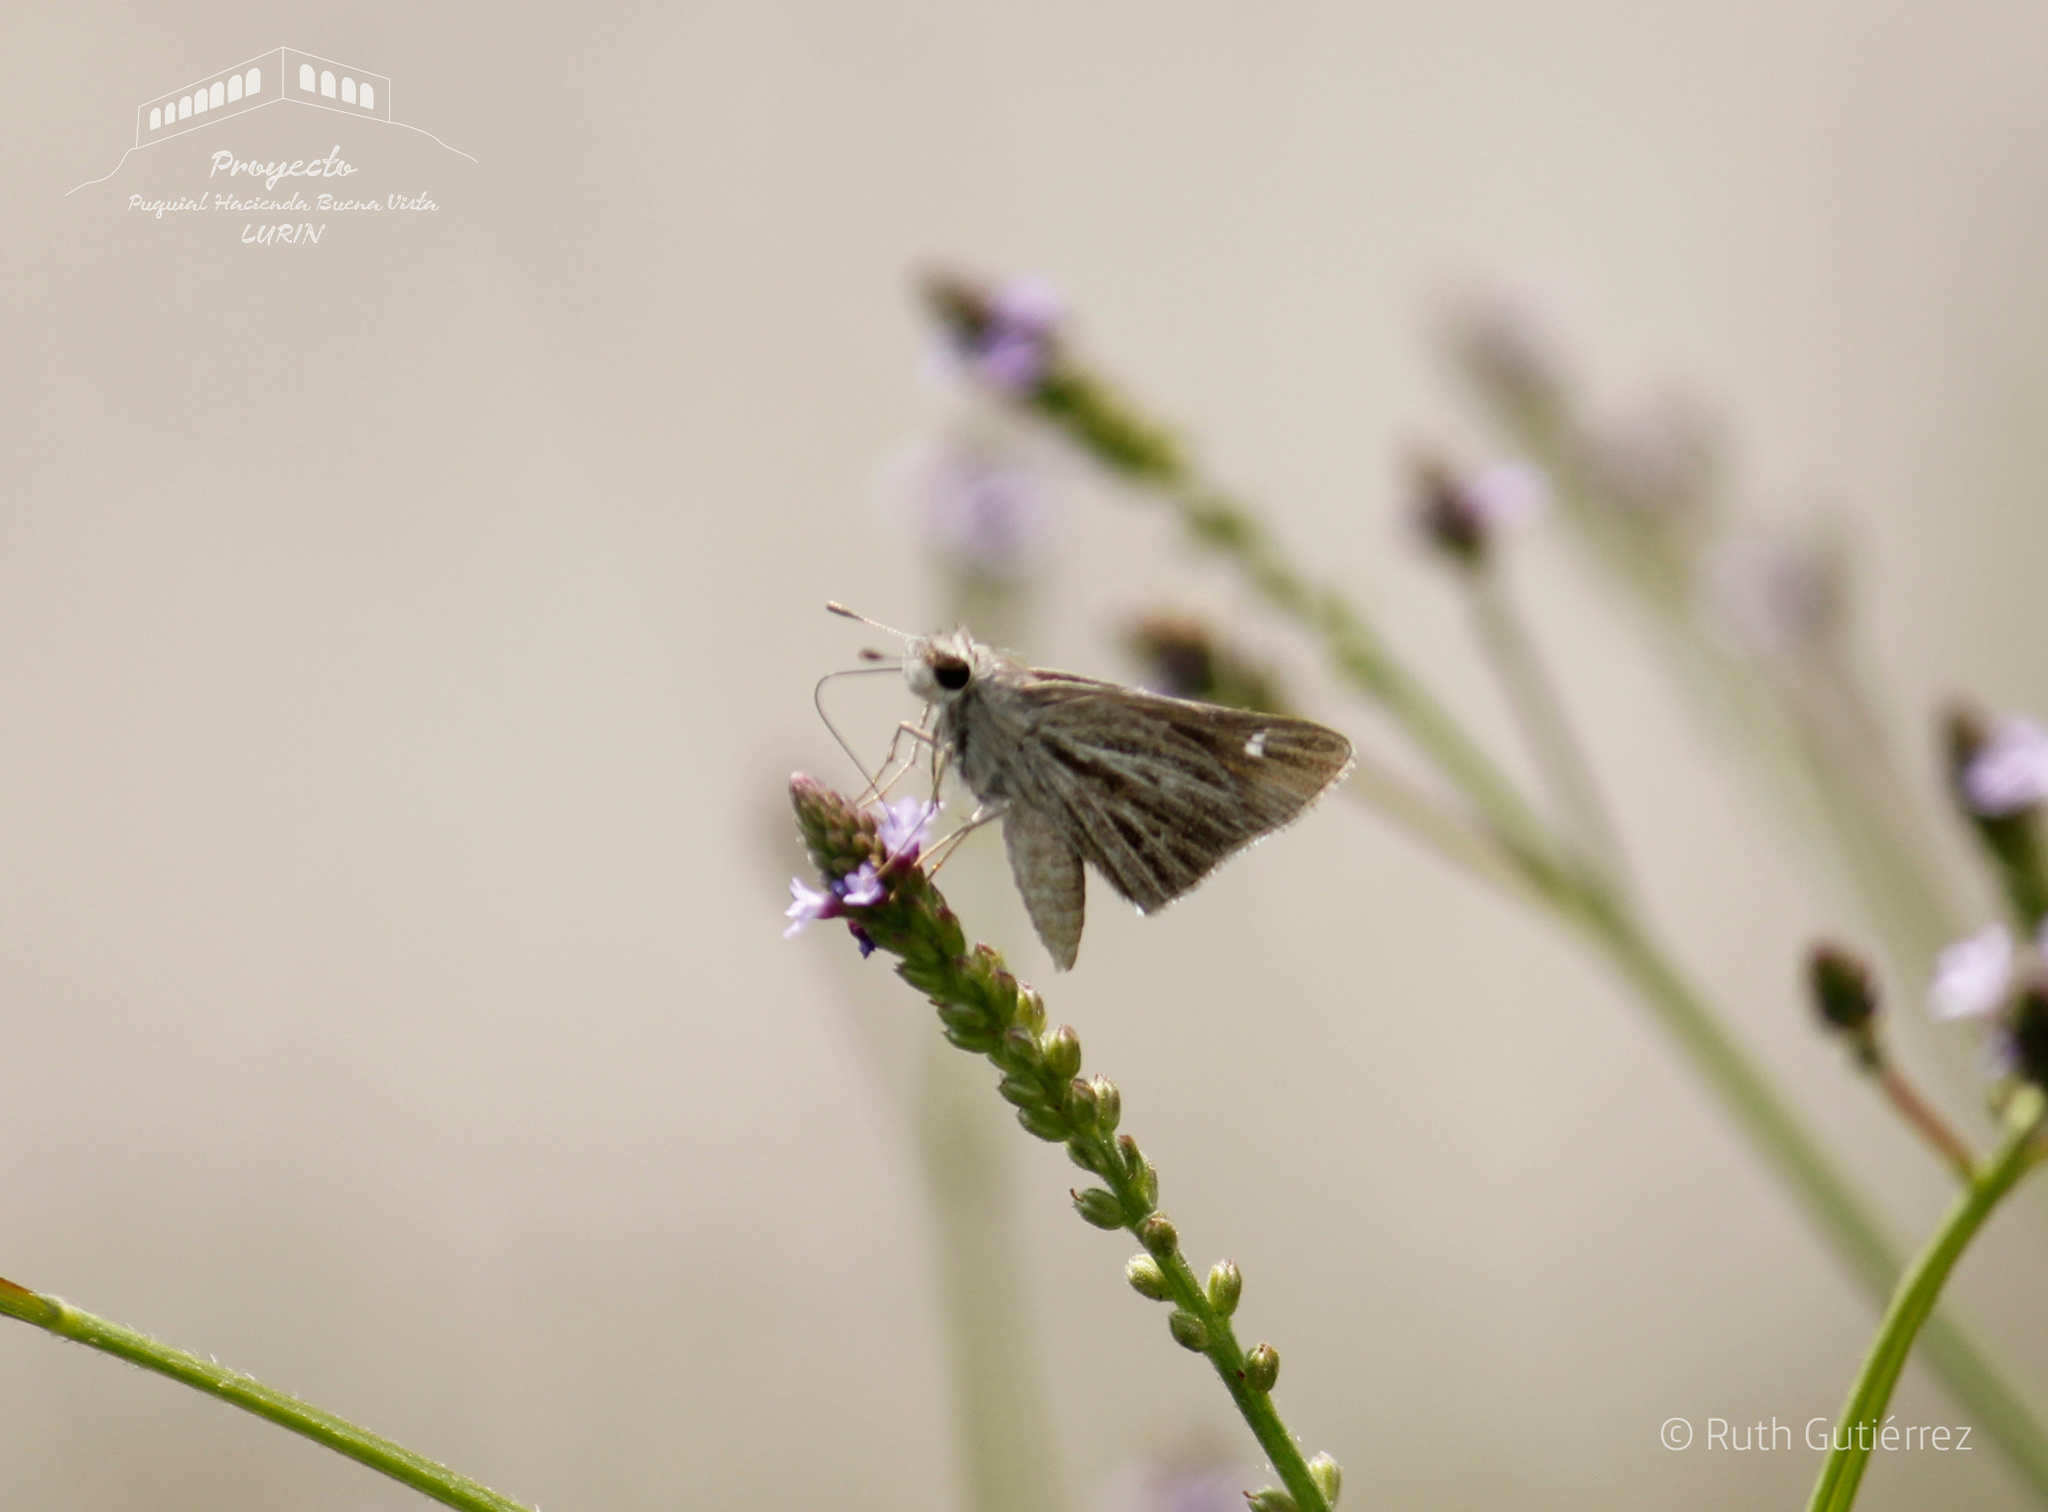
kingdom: Animalia
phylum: Arthropoda
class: Insecta
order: Lepidoptera
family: Hesperiidae
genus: Lerodea
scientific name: Lerodea gracia
